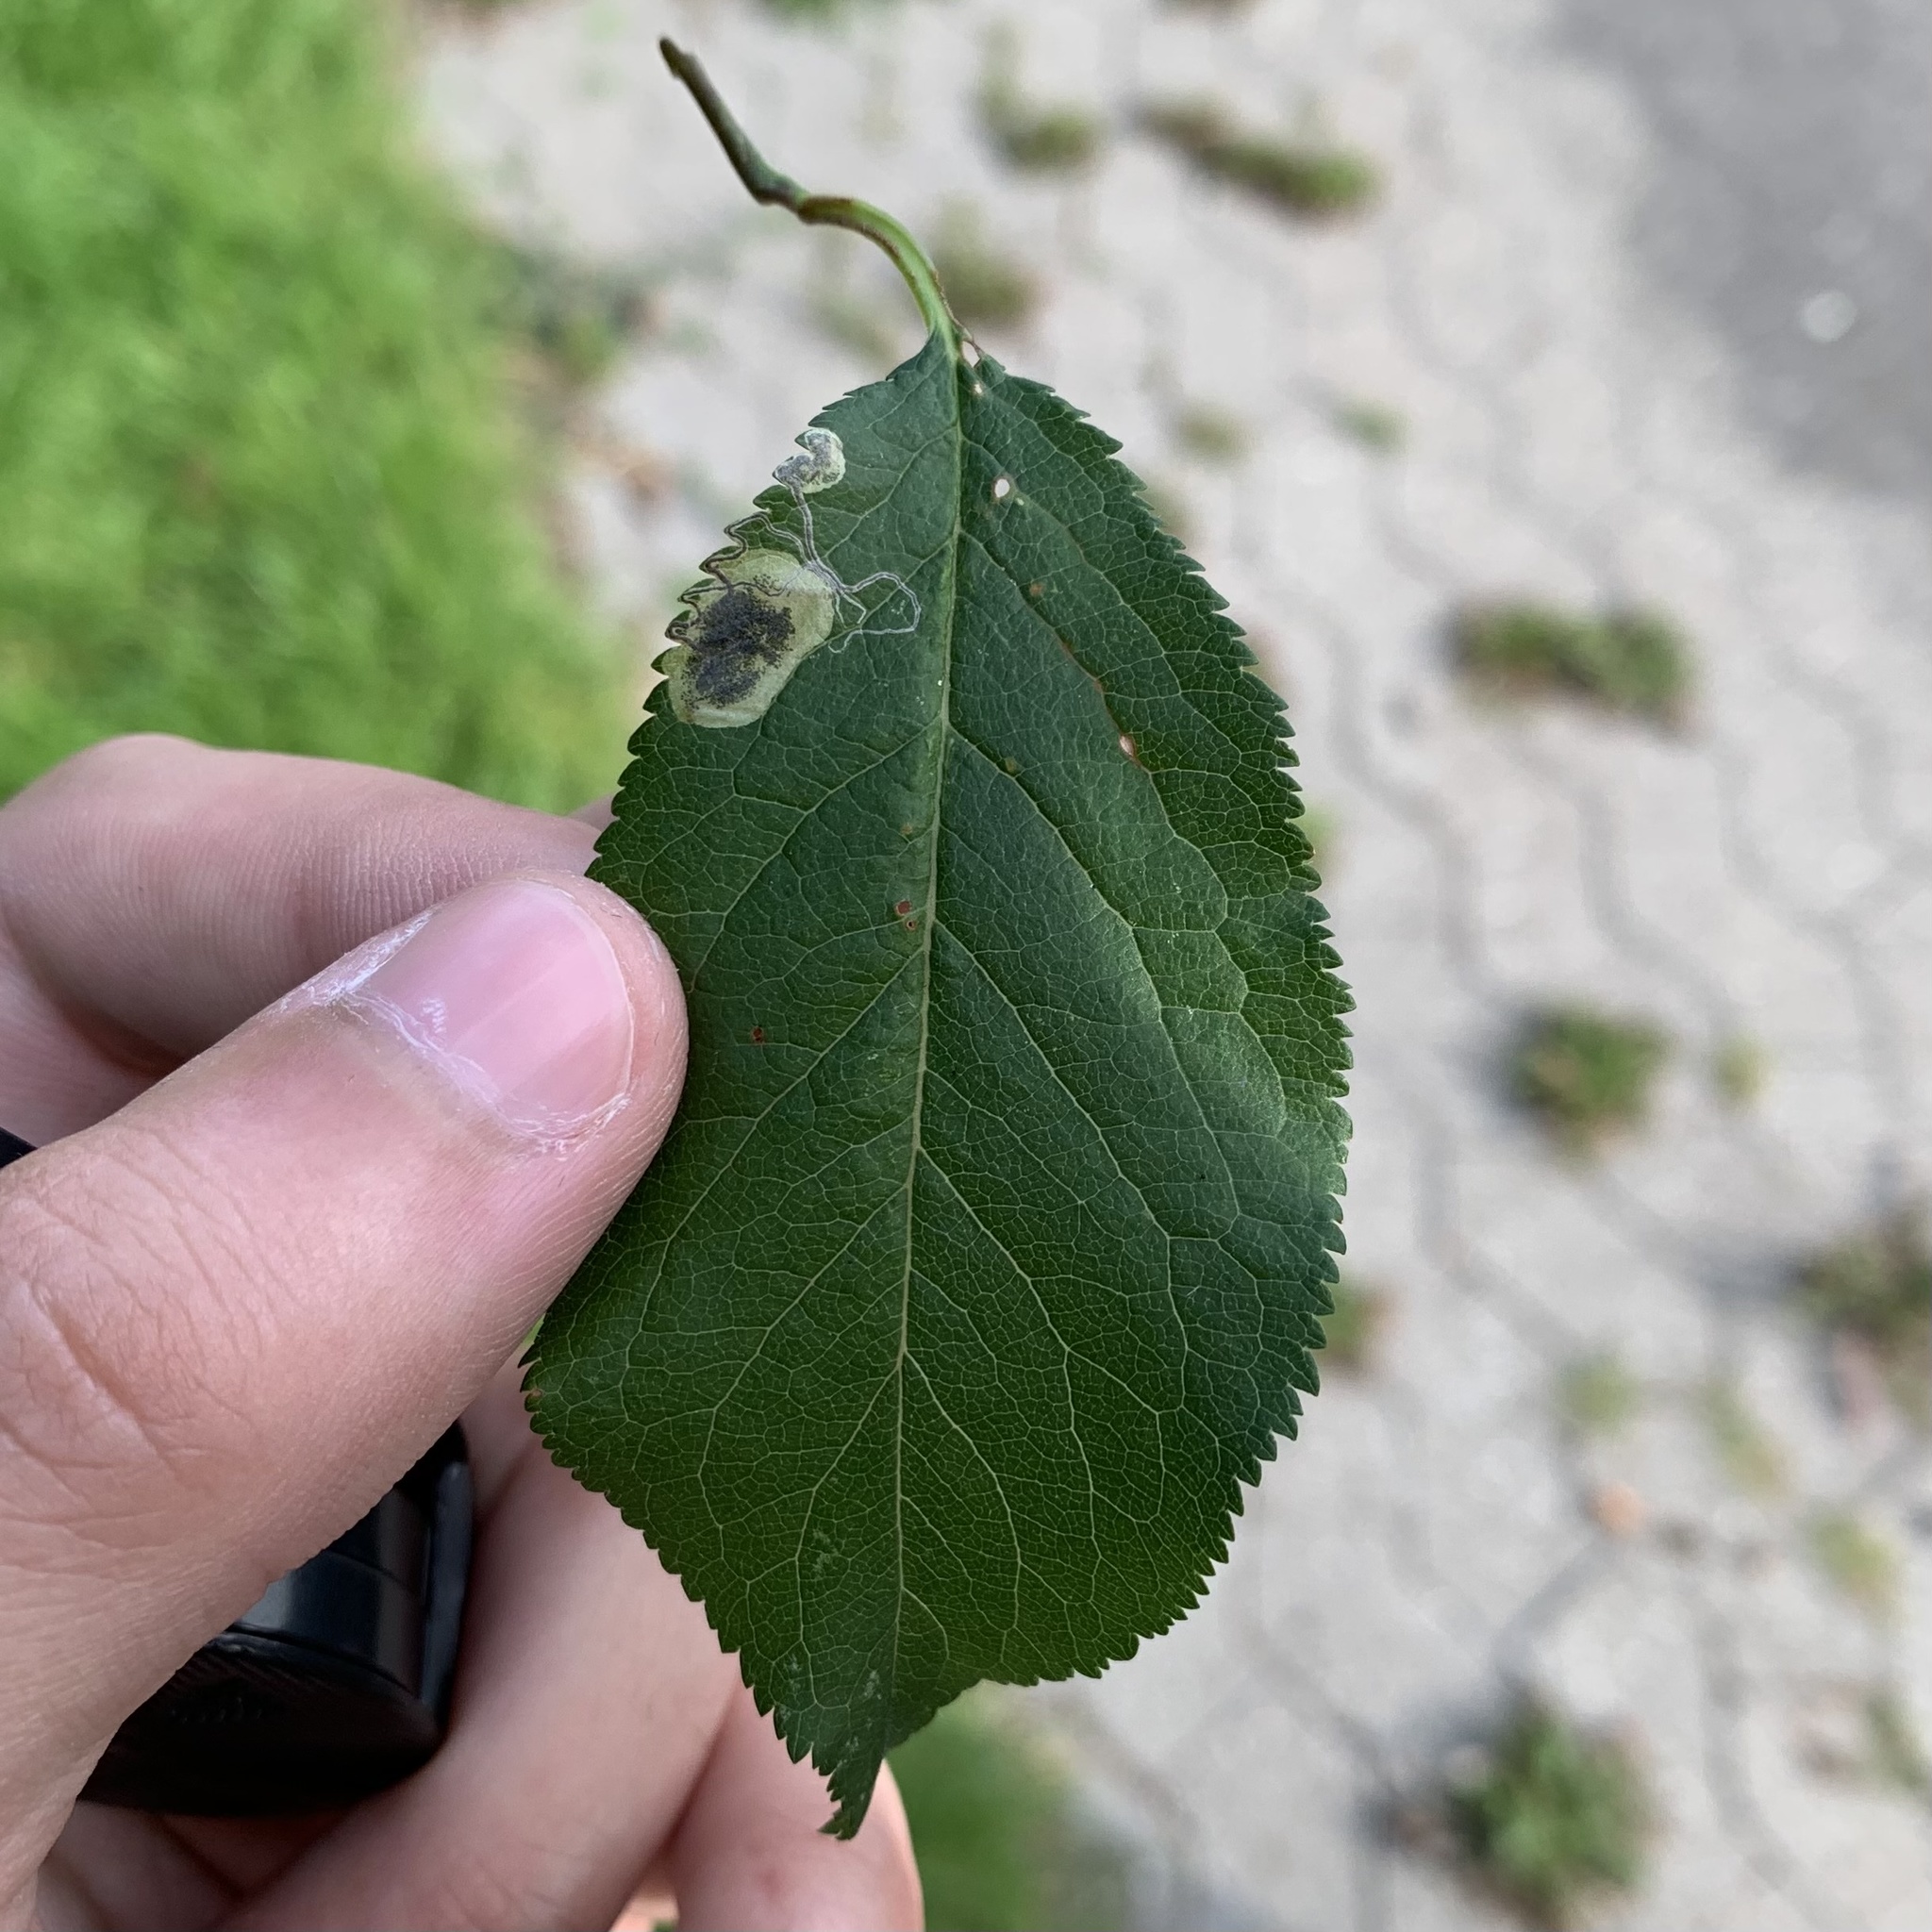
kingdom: Animalia
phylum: Arthropoda
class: Insecta
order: Lepidoptera
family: Nepticulidae
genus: Stigmella
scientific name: Stigmella plagicolella
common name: Scrubland pigmy
